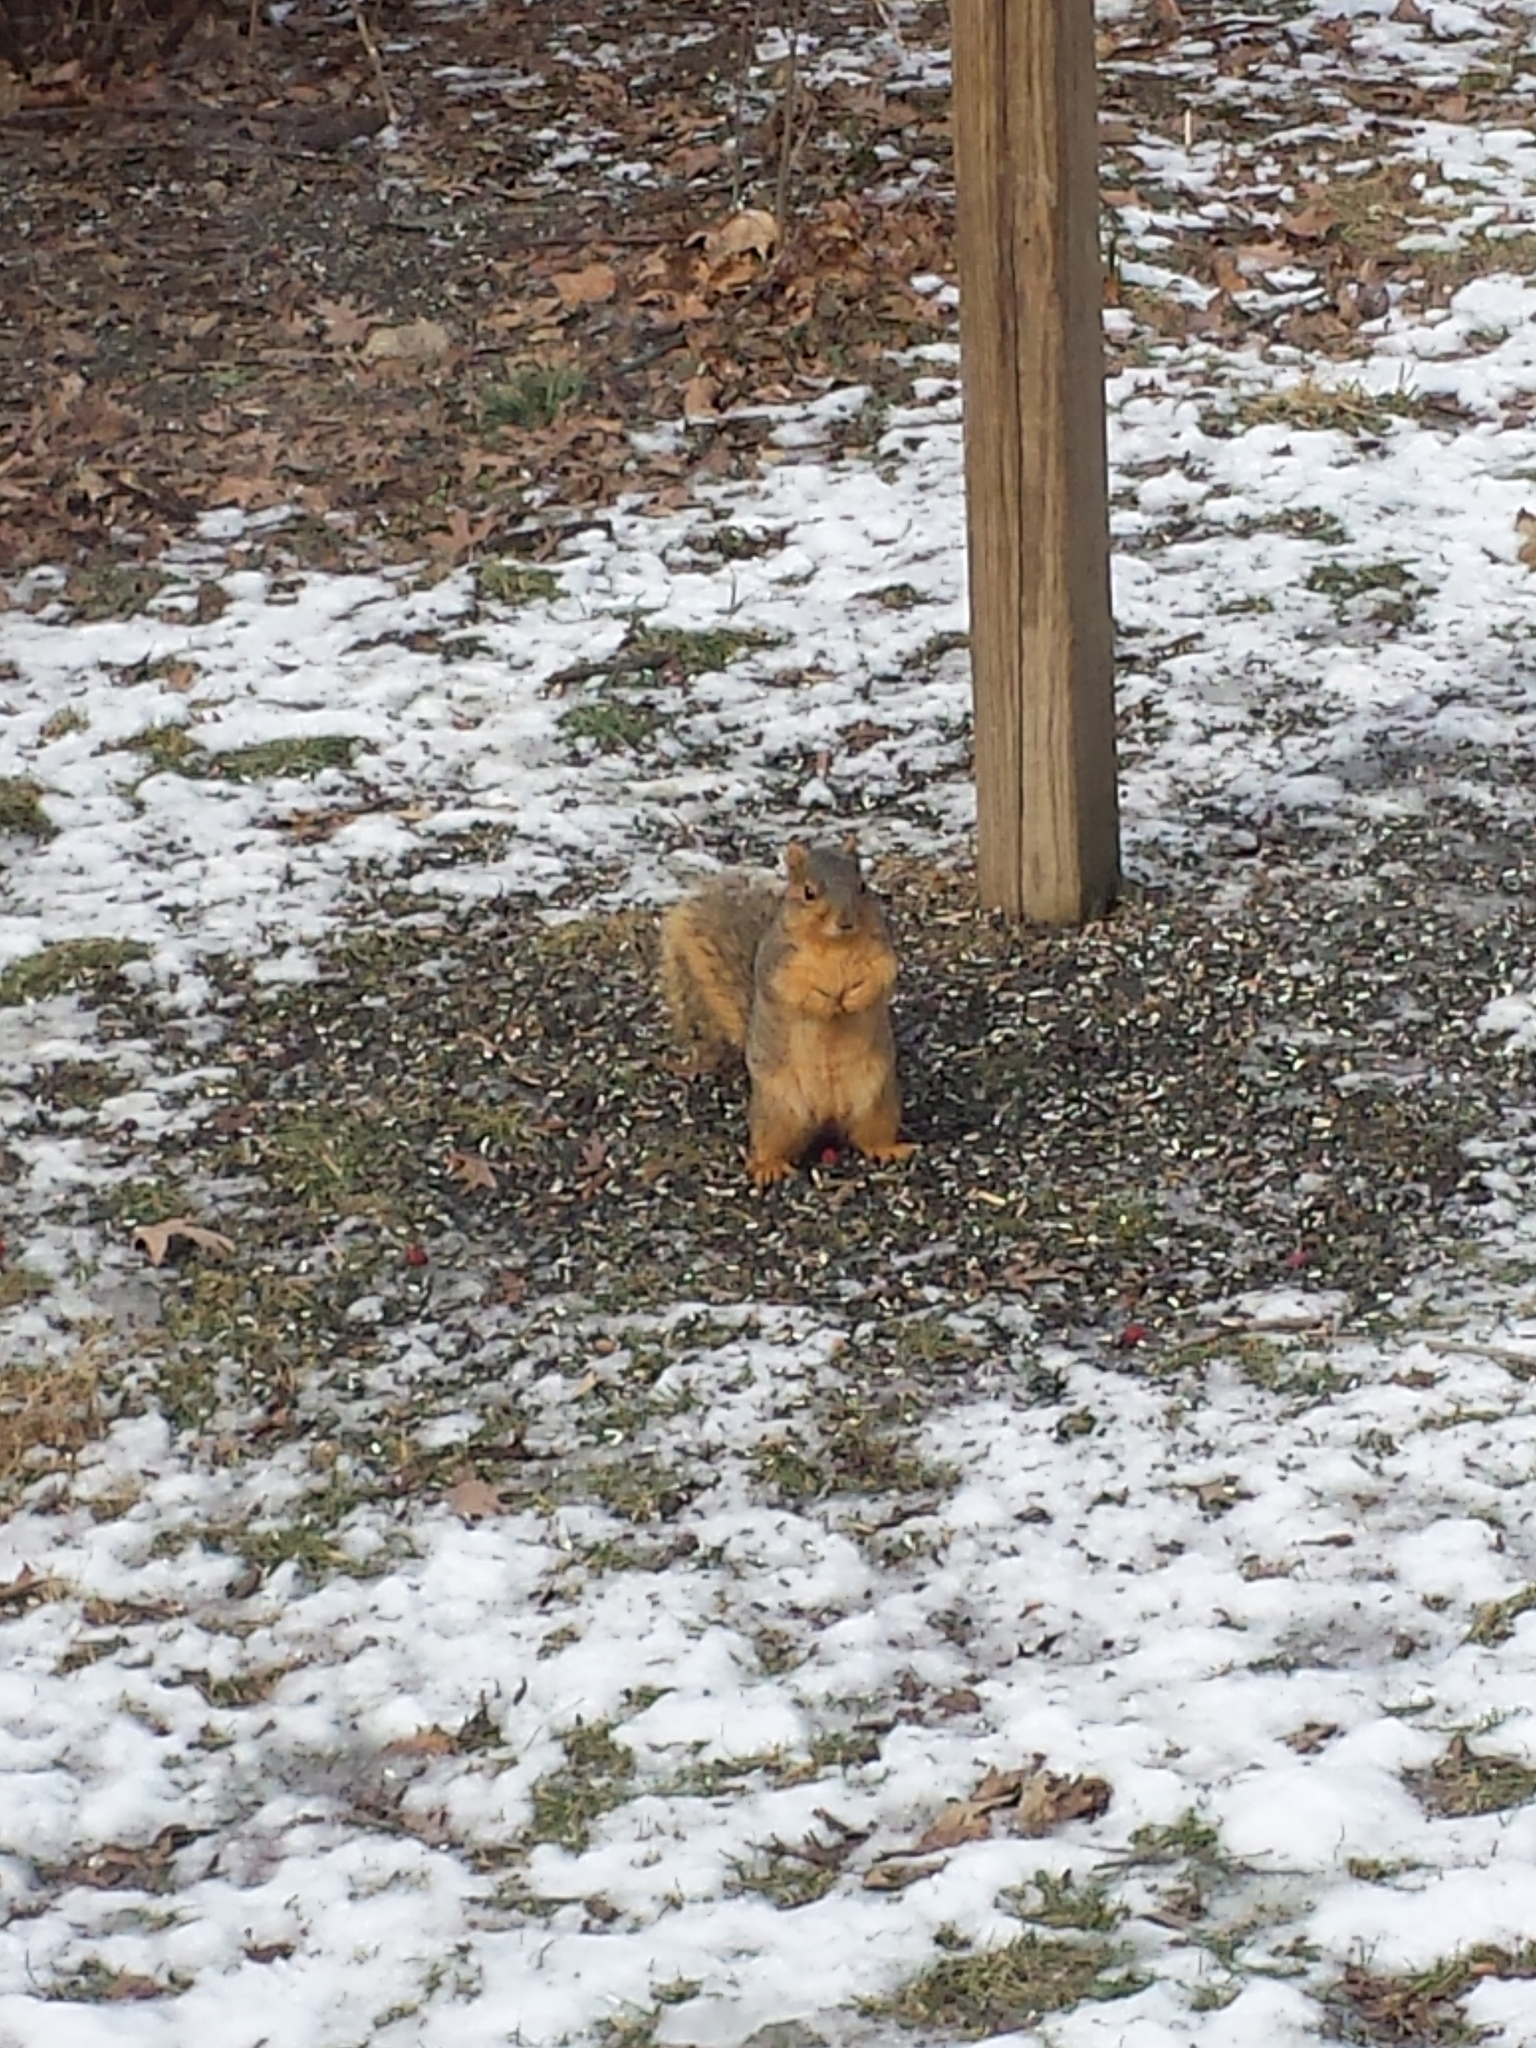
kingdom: Animalia
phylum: Chordata
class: Mammalia
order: Rodentia
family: Sciuridae
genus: Sciurus
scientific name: Sciurus niger
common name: Fox squirrel
